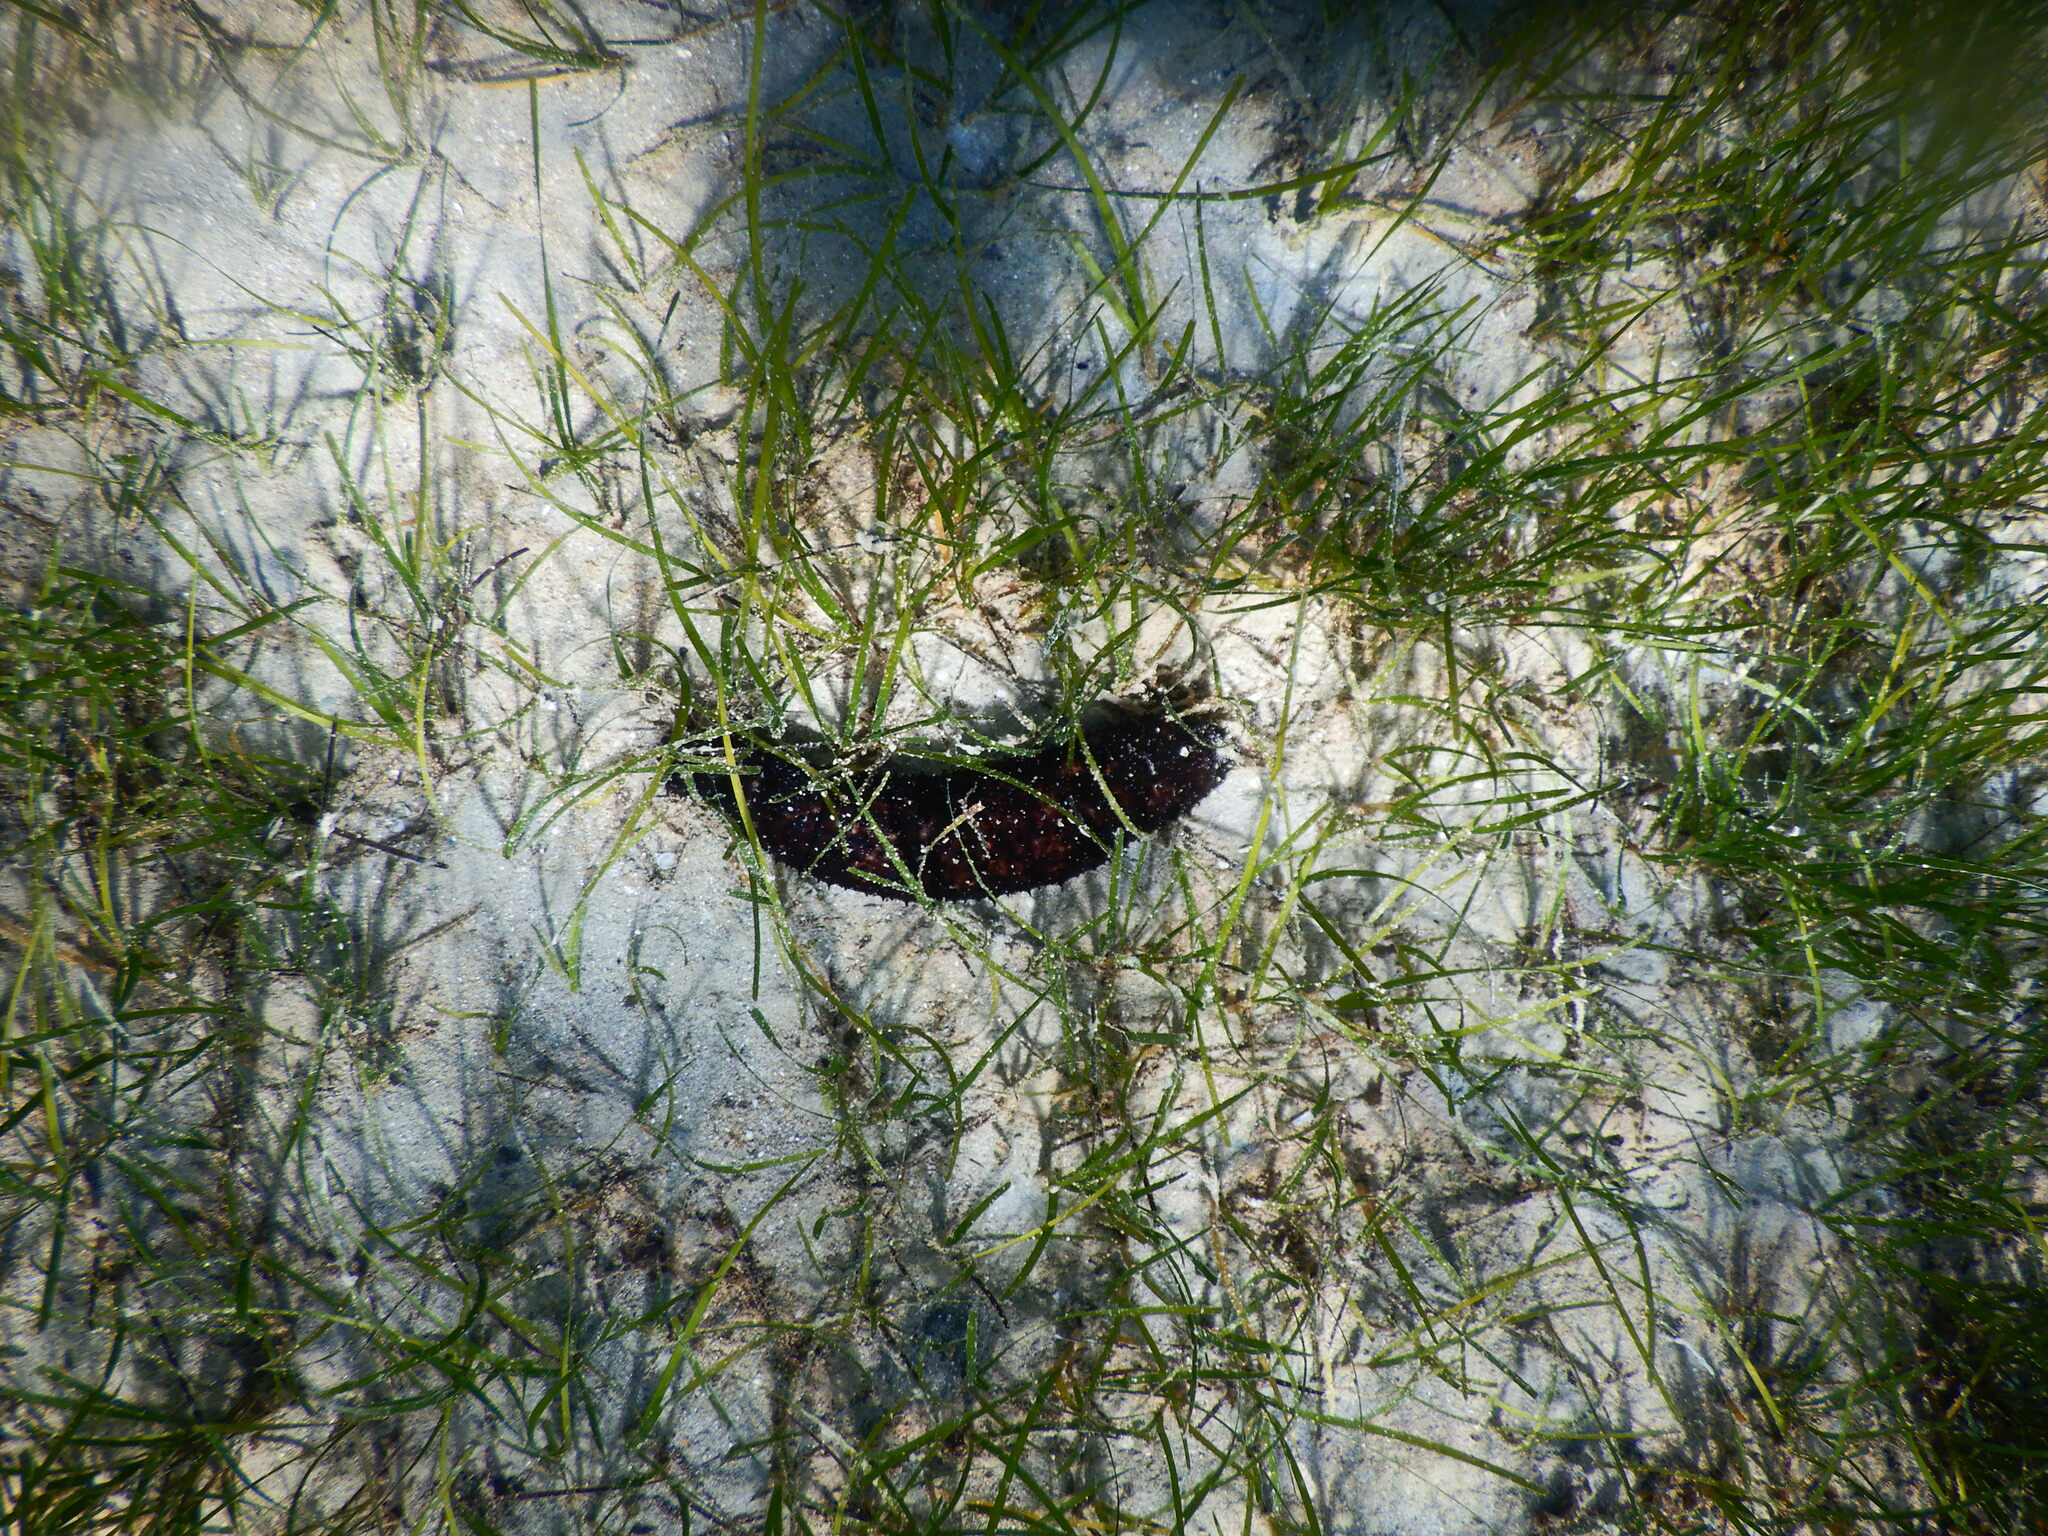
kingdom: Animalia
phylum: Echinodermata
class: Holothuroidea
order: Holothuriida
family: Holothuriidae
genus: Holothuria
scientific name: Holothuria poli
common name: White spot cucumber
